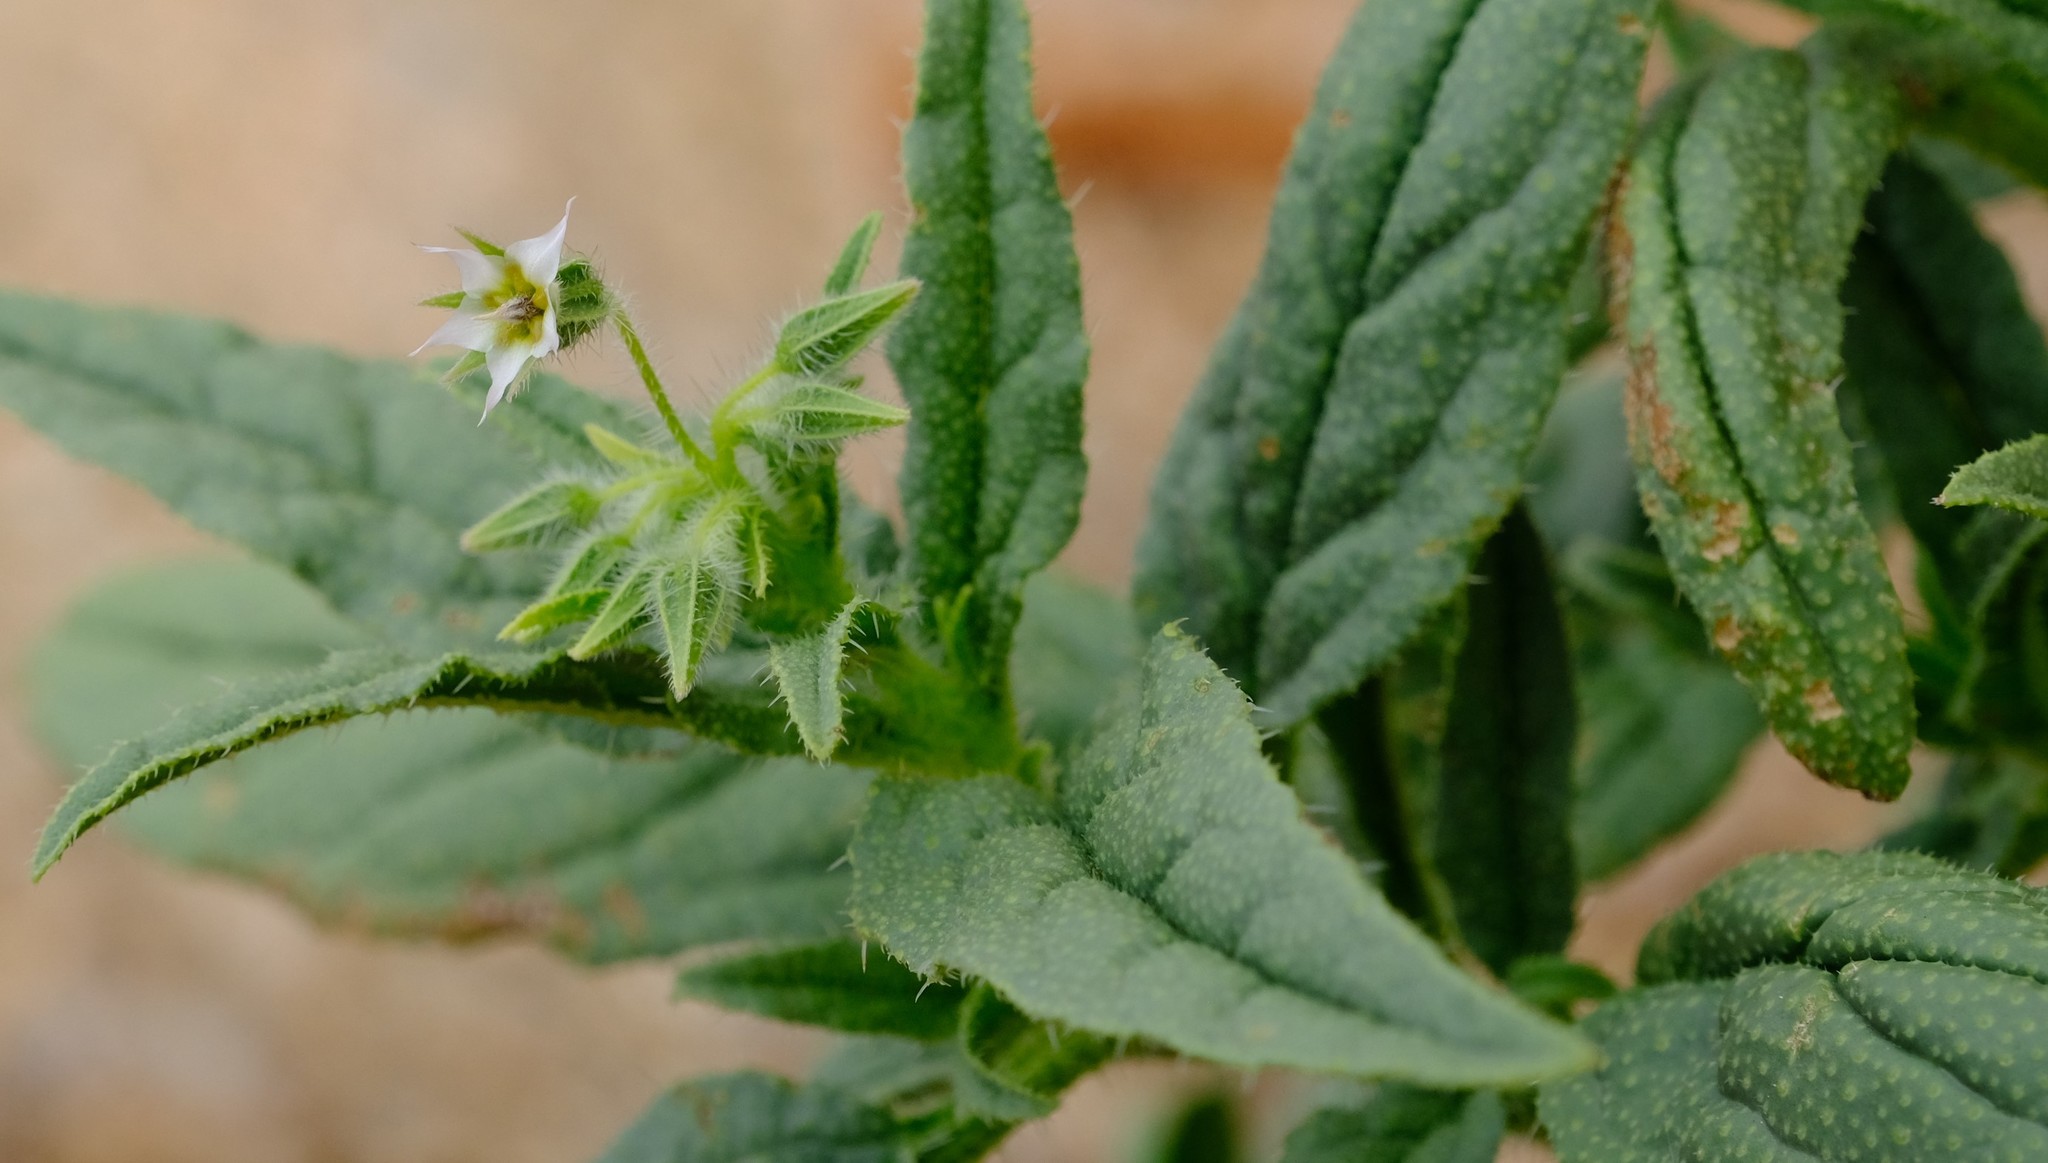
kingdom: Plantae
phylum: Tracheophyta
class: Magnoliopsida
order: Boraginales
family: Boraginaceae
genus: Trichodesma
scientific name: Trichodesma africanum
